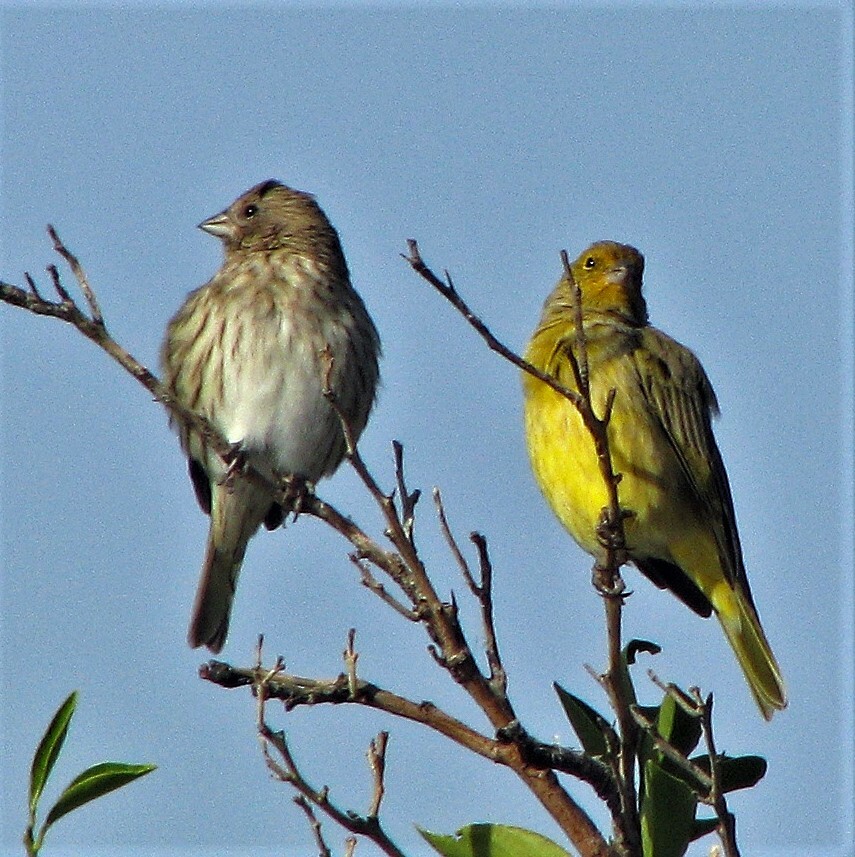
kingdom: Animalia
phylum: Chordata
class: Aves
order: Passeriformes
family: Thraupidae
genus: Sicalis
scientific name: Sicalis flaveola
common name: Saffron finch
